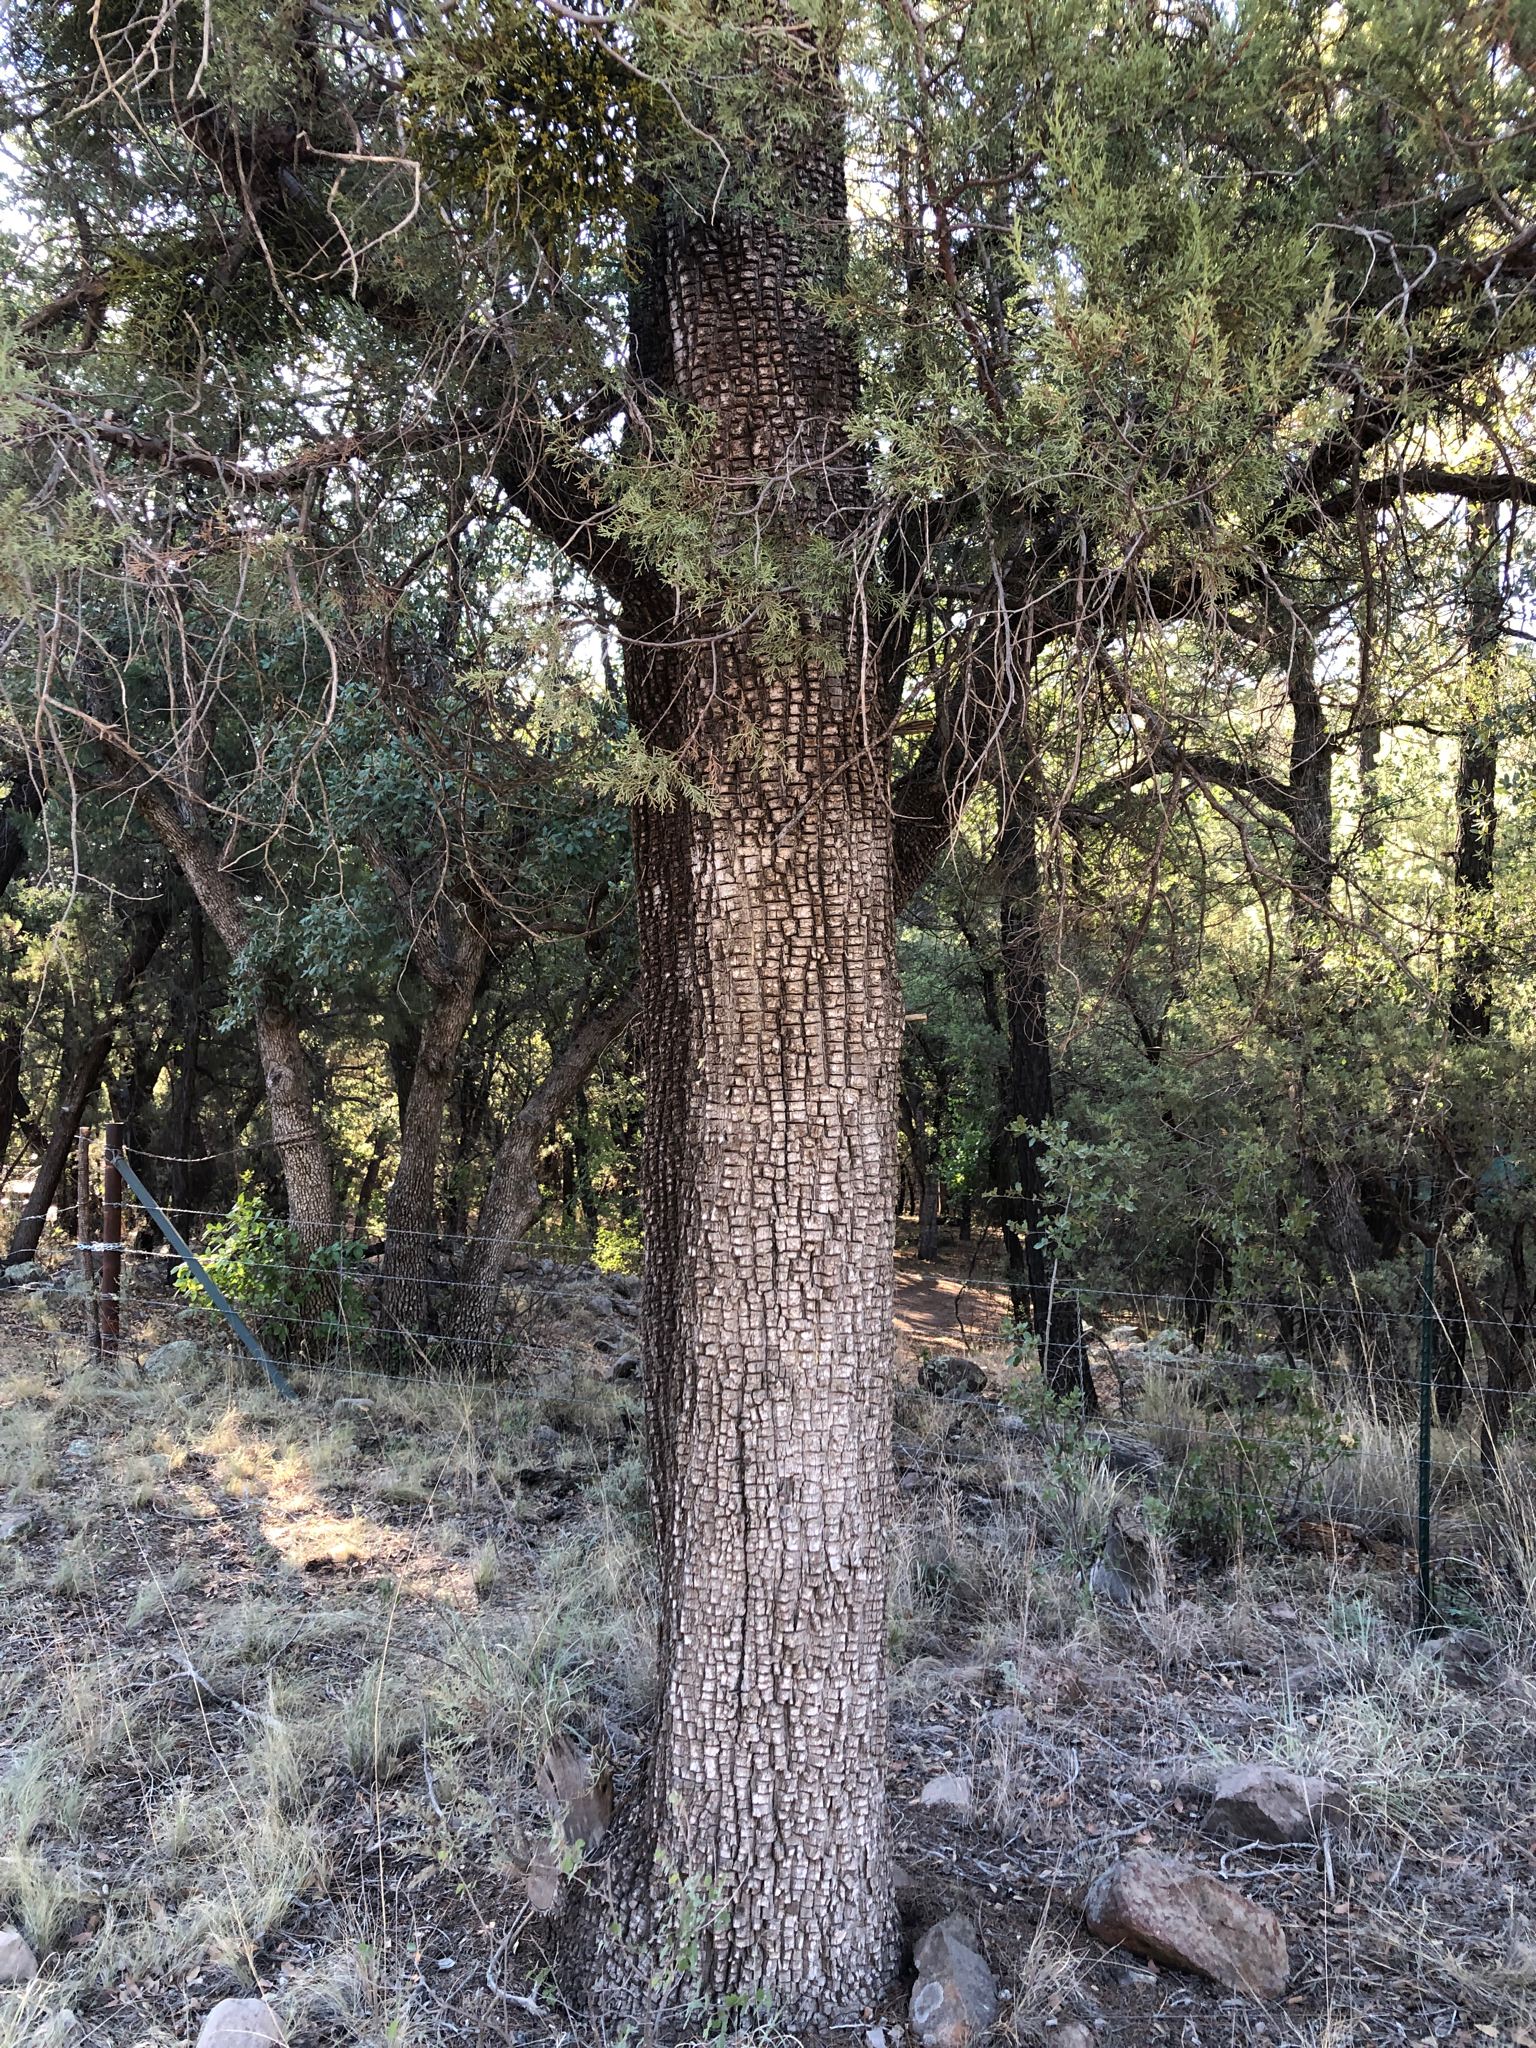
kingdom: Plantae
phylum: Tracheophyta
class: Pinopsida
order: Pinales
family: Cupressaceae
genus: Juniperus
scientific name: Juniperus deppeana
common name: Alligator juniper
